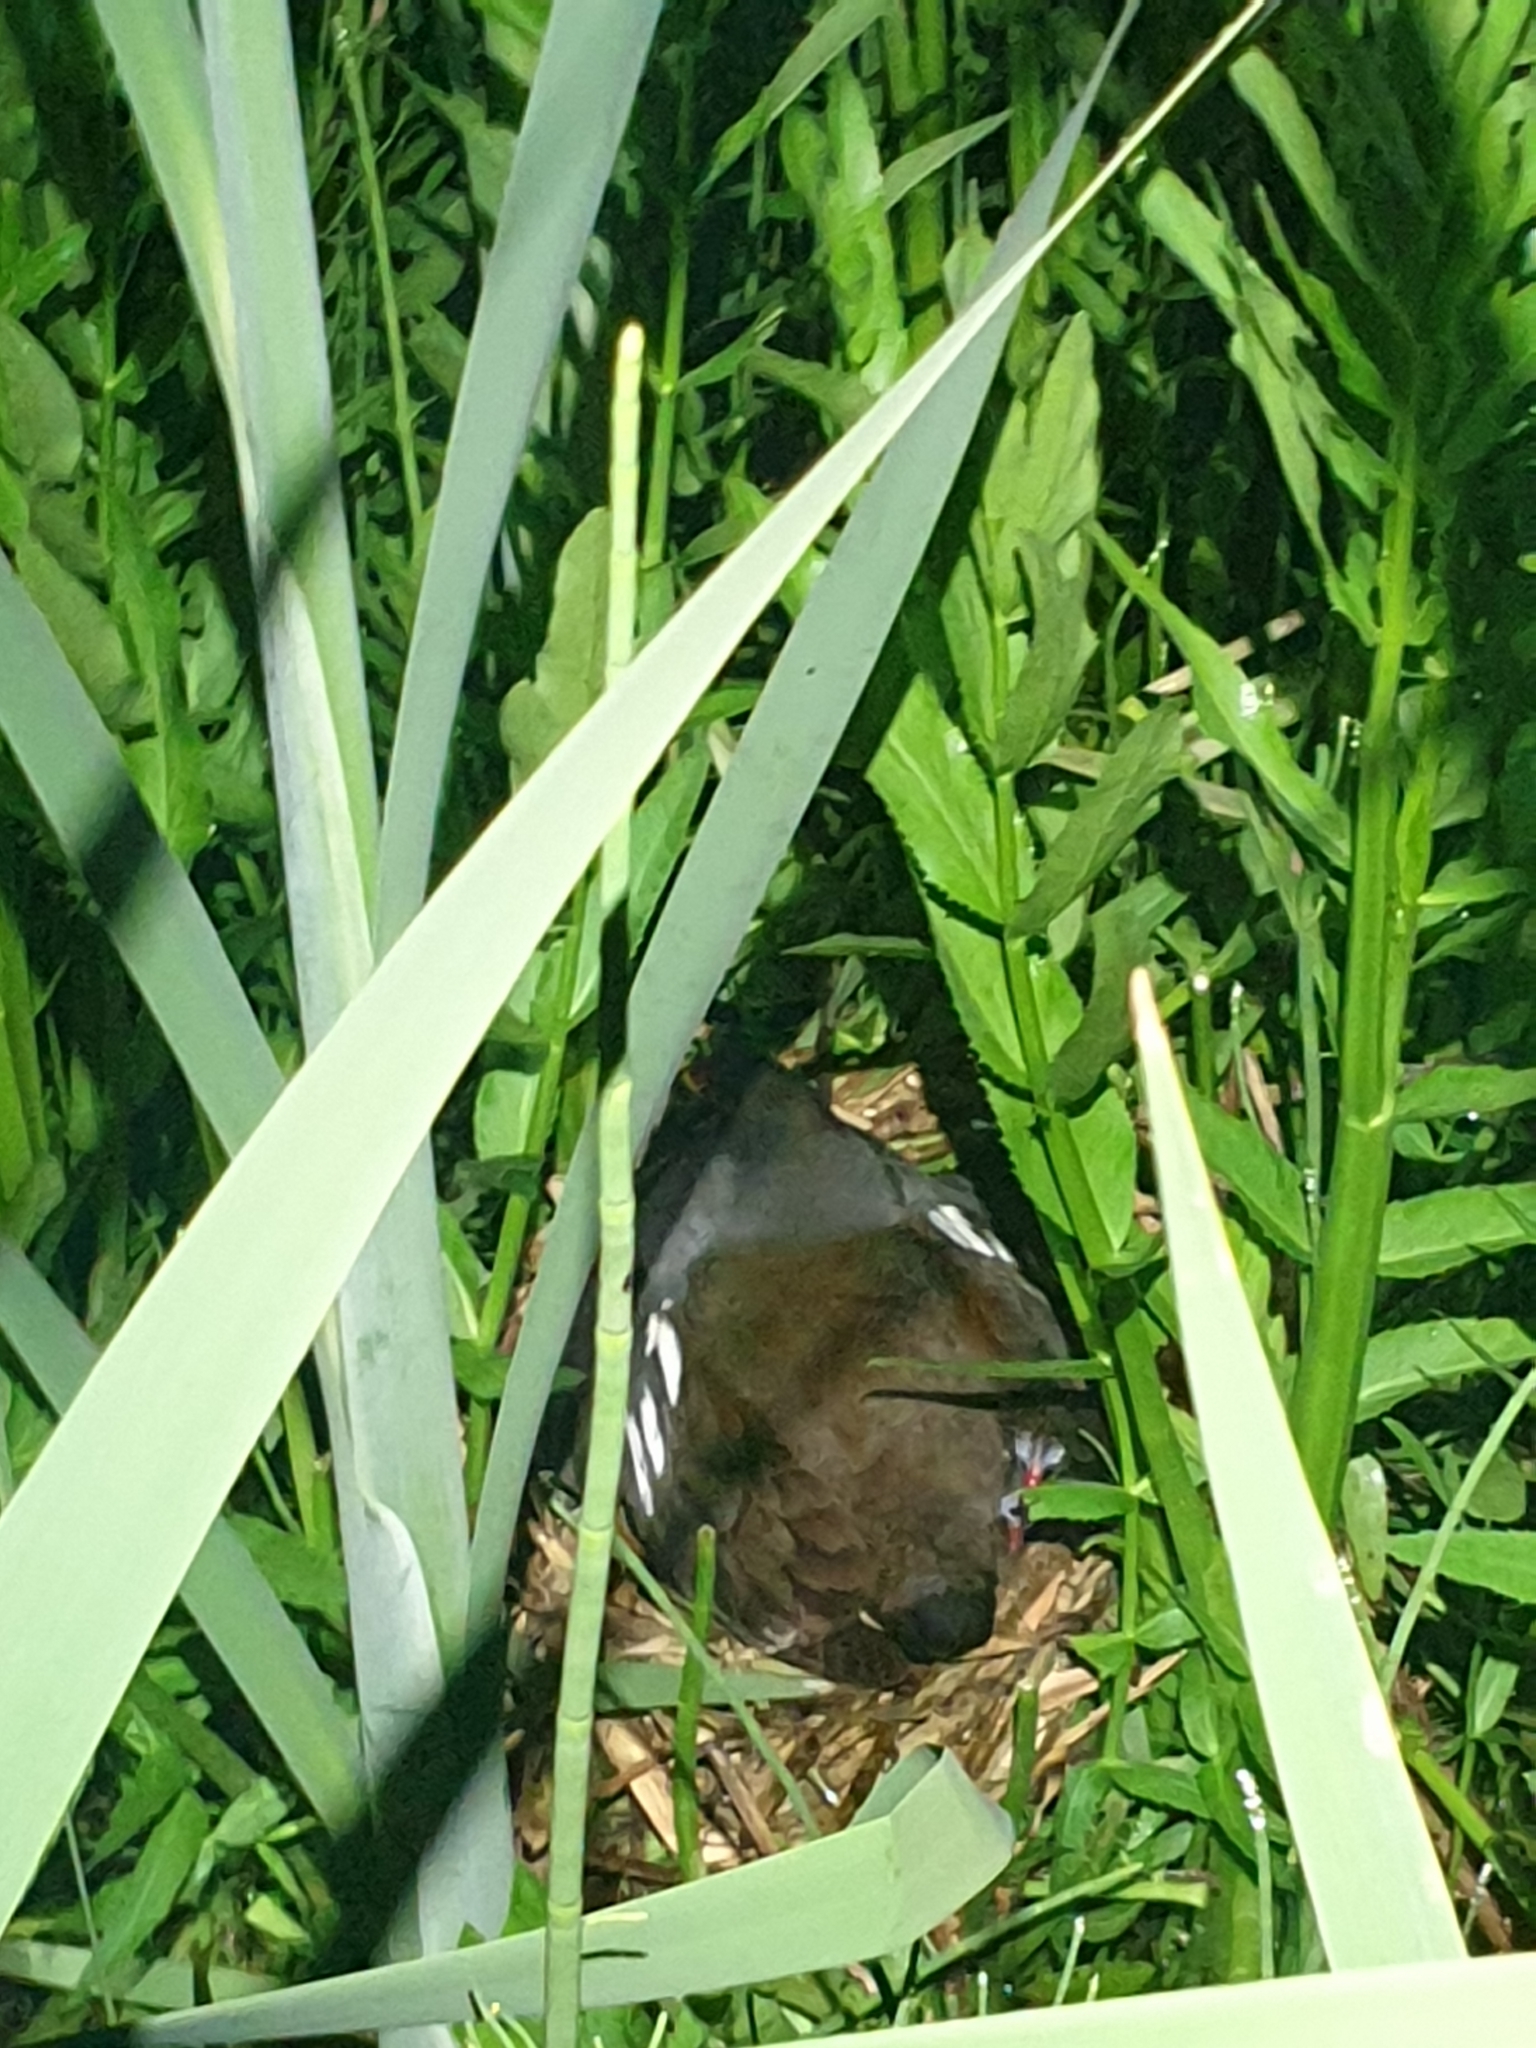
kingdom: Animalia
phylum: Chordata
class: Aves
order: Gruiformes
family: Rallidae
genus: Gallinula
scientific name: Gallinula chloropus
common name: Common moorhen
